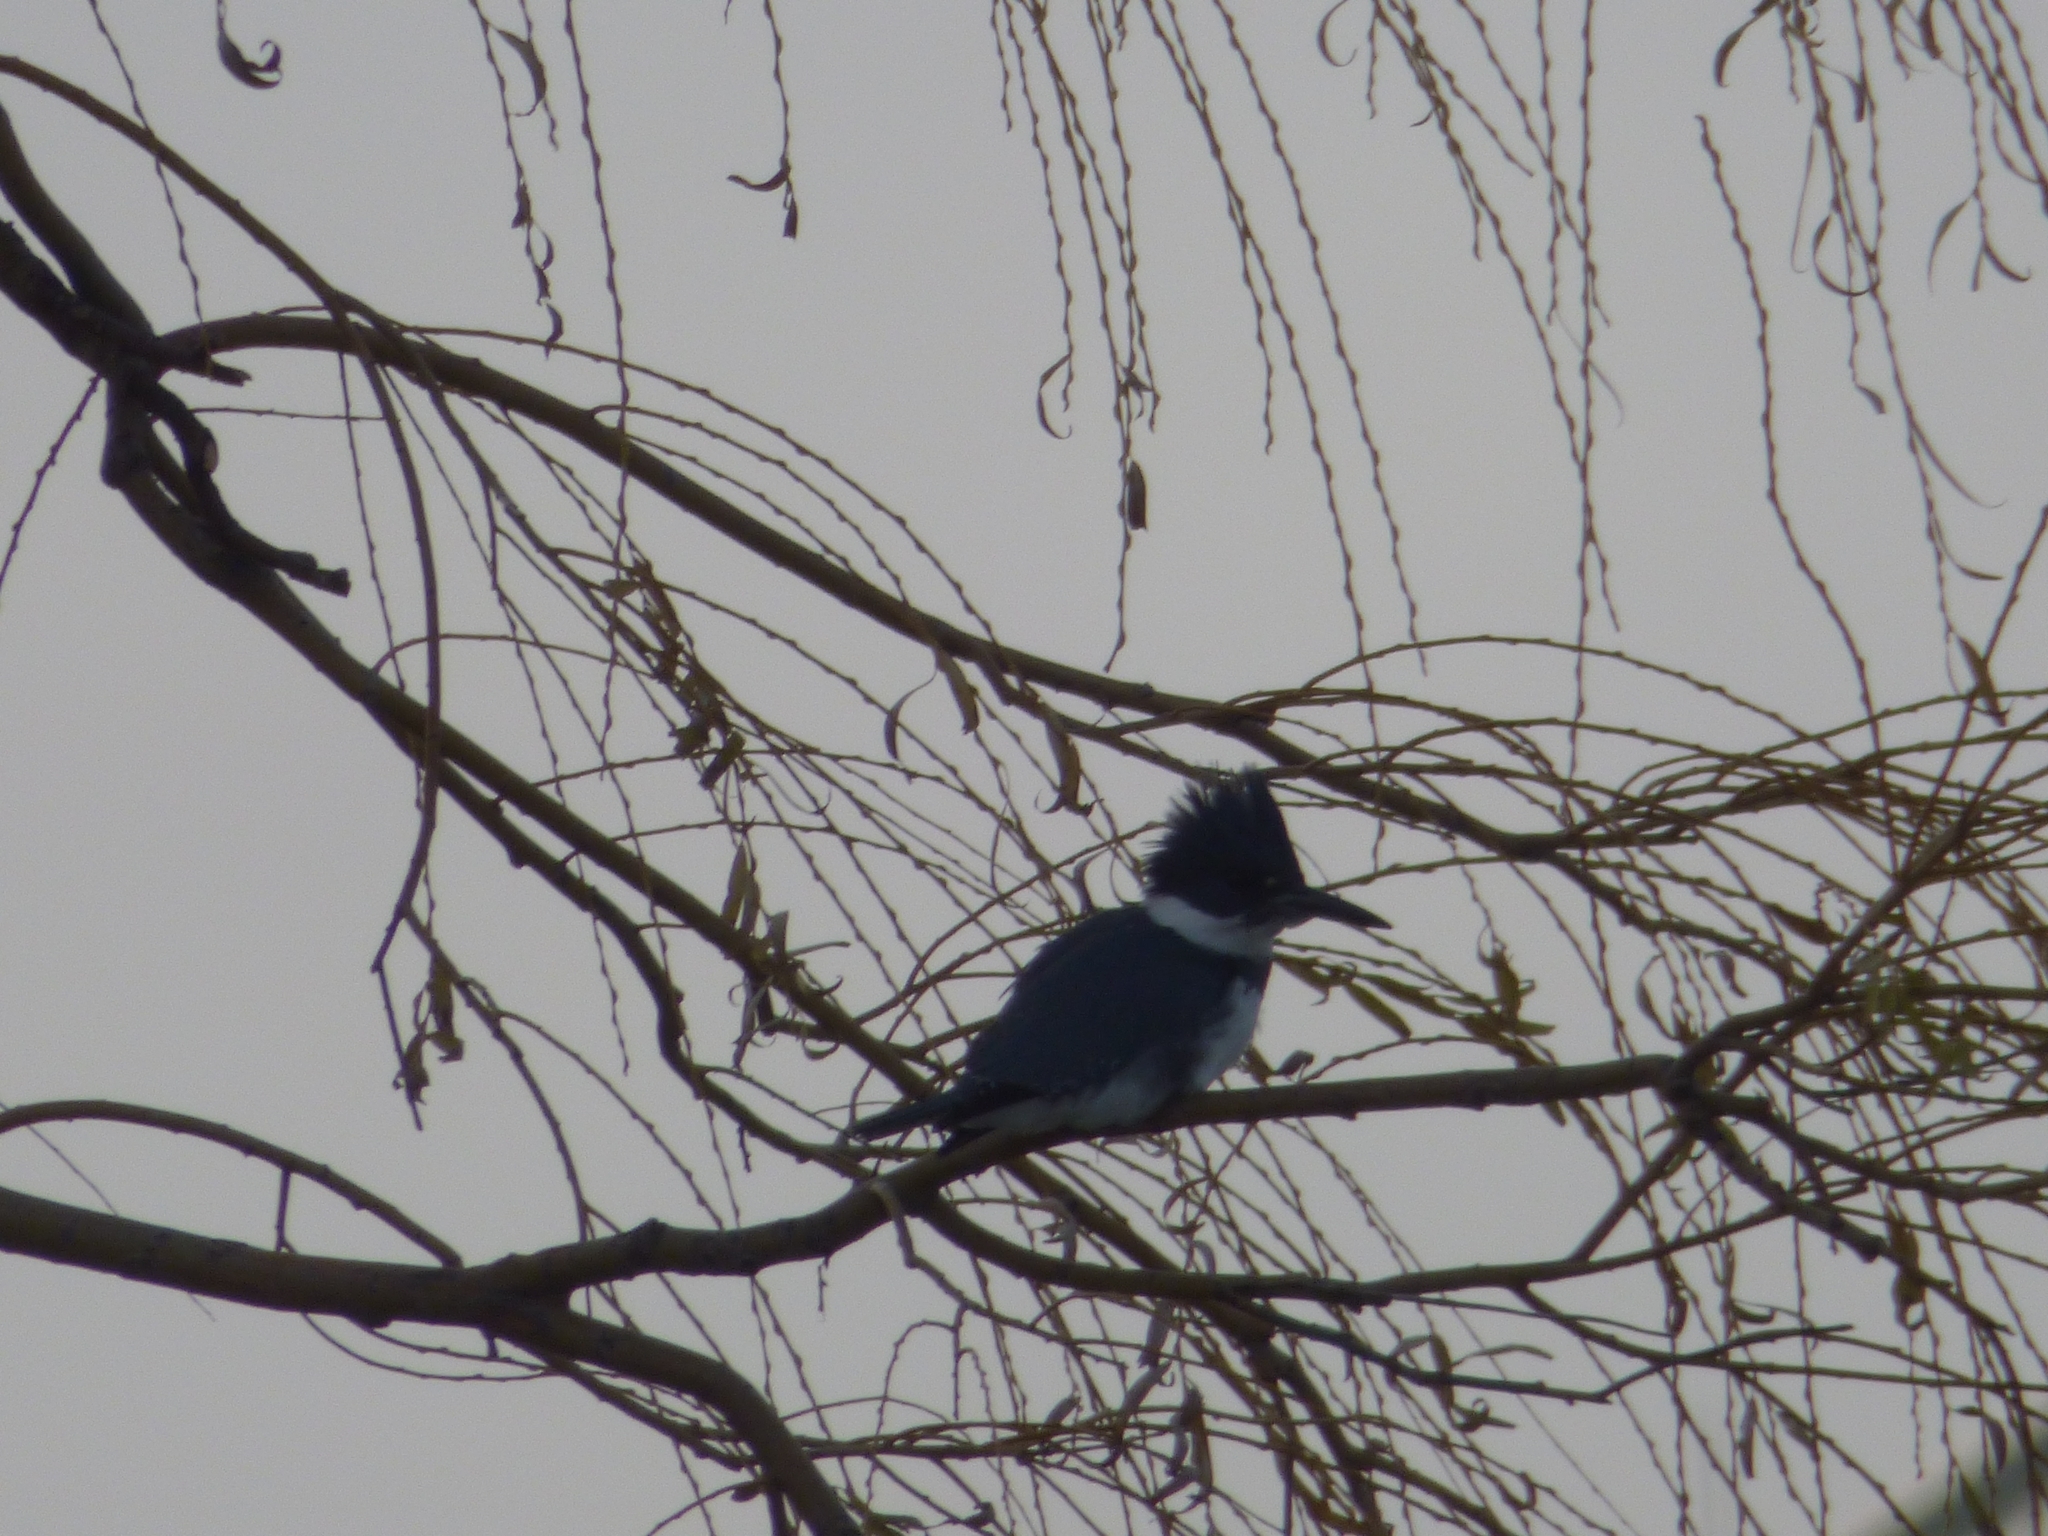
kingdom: Animalia
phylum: Chordata
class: Aves
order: Coraciiformes
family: Alcedinidae
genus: Megaceryle
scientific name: Megaceryle alcyon
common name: Belted kingfisher
